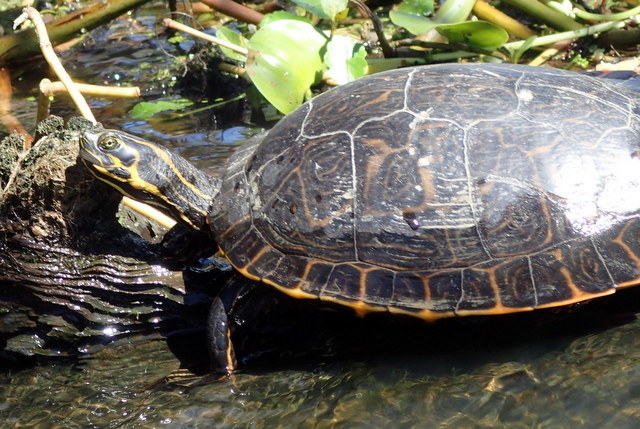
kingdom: Animalia
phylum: Chordata
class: Testudines
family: Emydidae
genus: Pseudemys
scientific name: Pseudemys concinna
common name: Eastern river cooter
